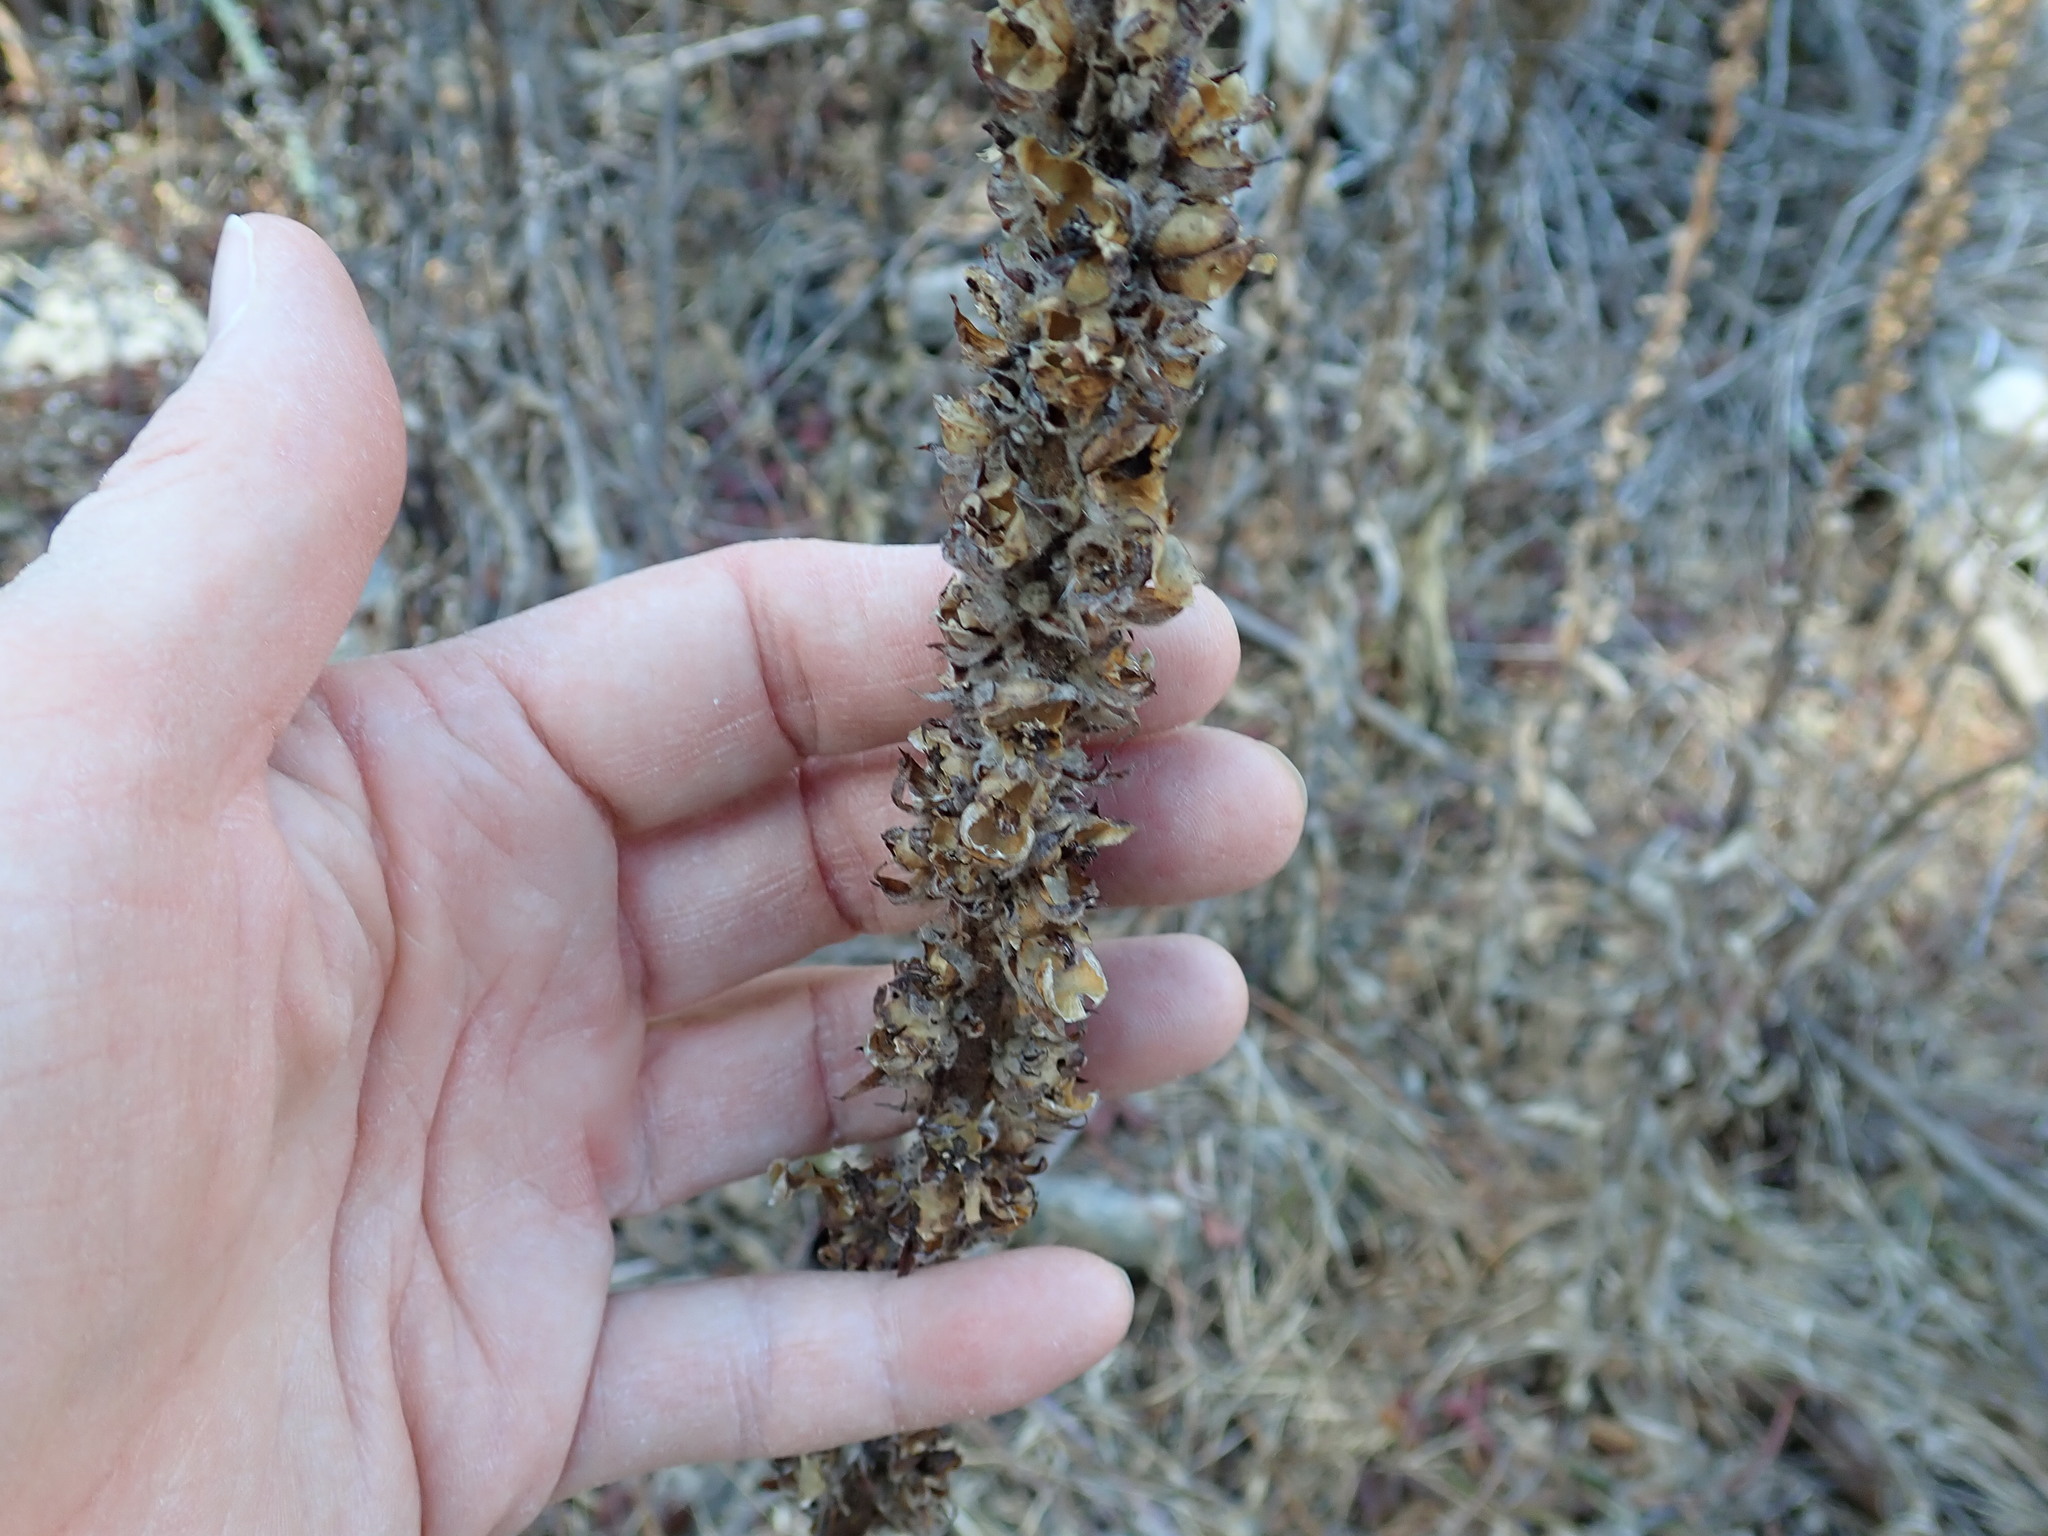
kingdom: Plantae
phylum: Tracheophyta
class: Magnoliopsida
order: Lamiales
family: Scrophulariaceae
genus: Verbascum
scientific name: Verbascum thapsus
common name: Common mullein
